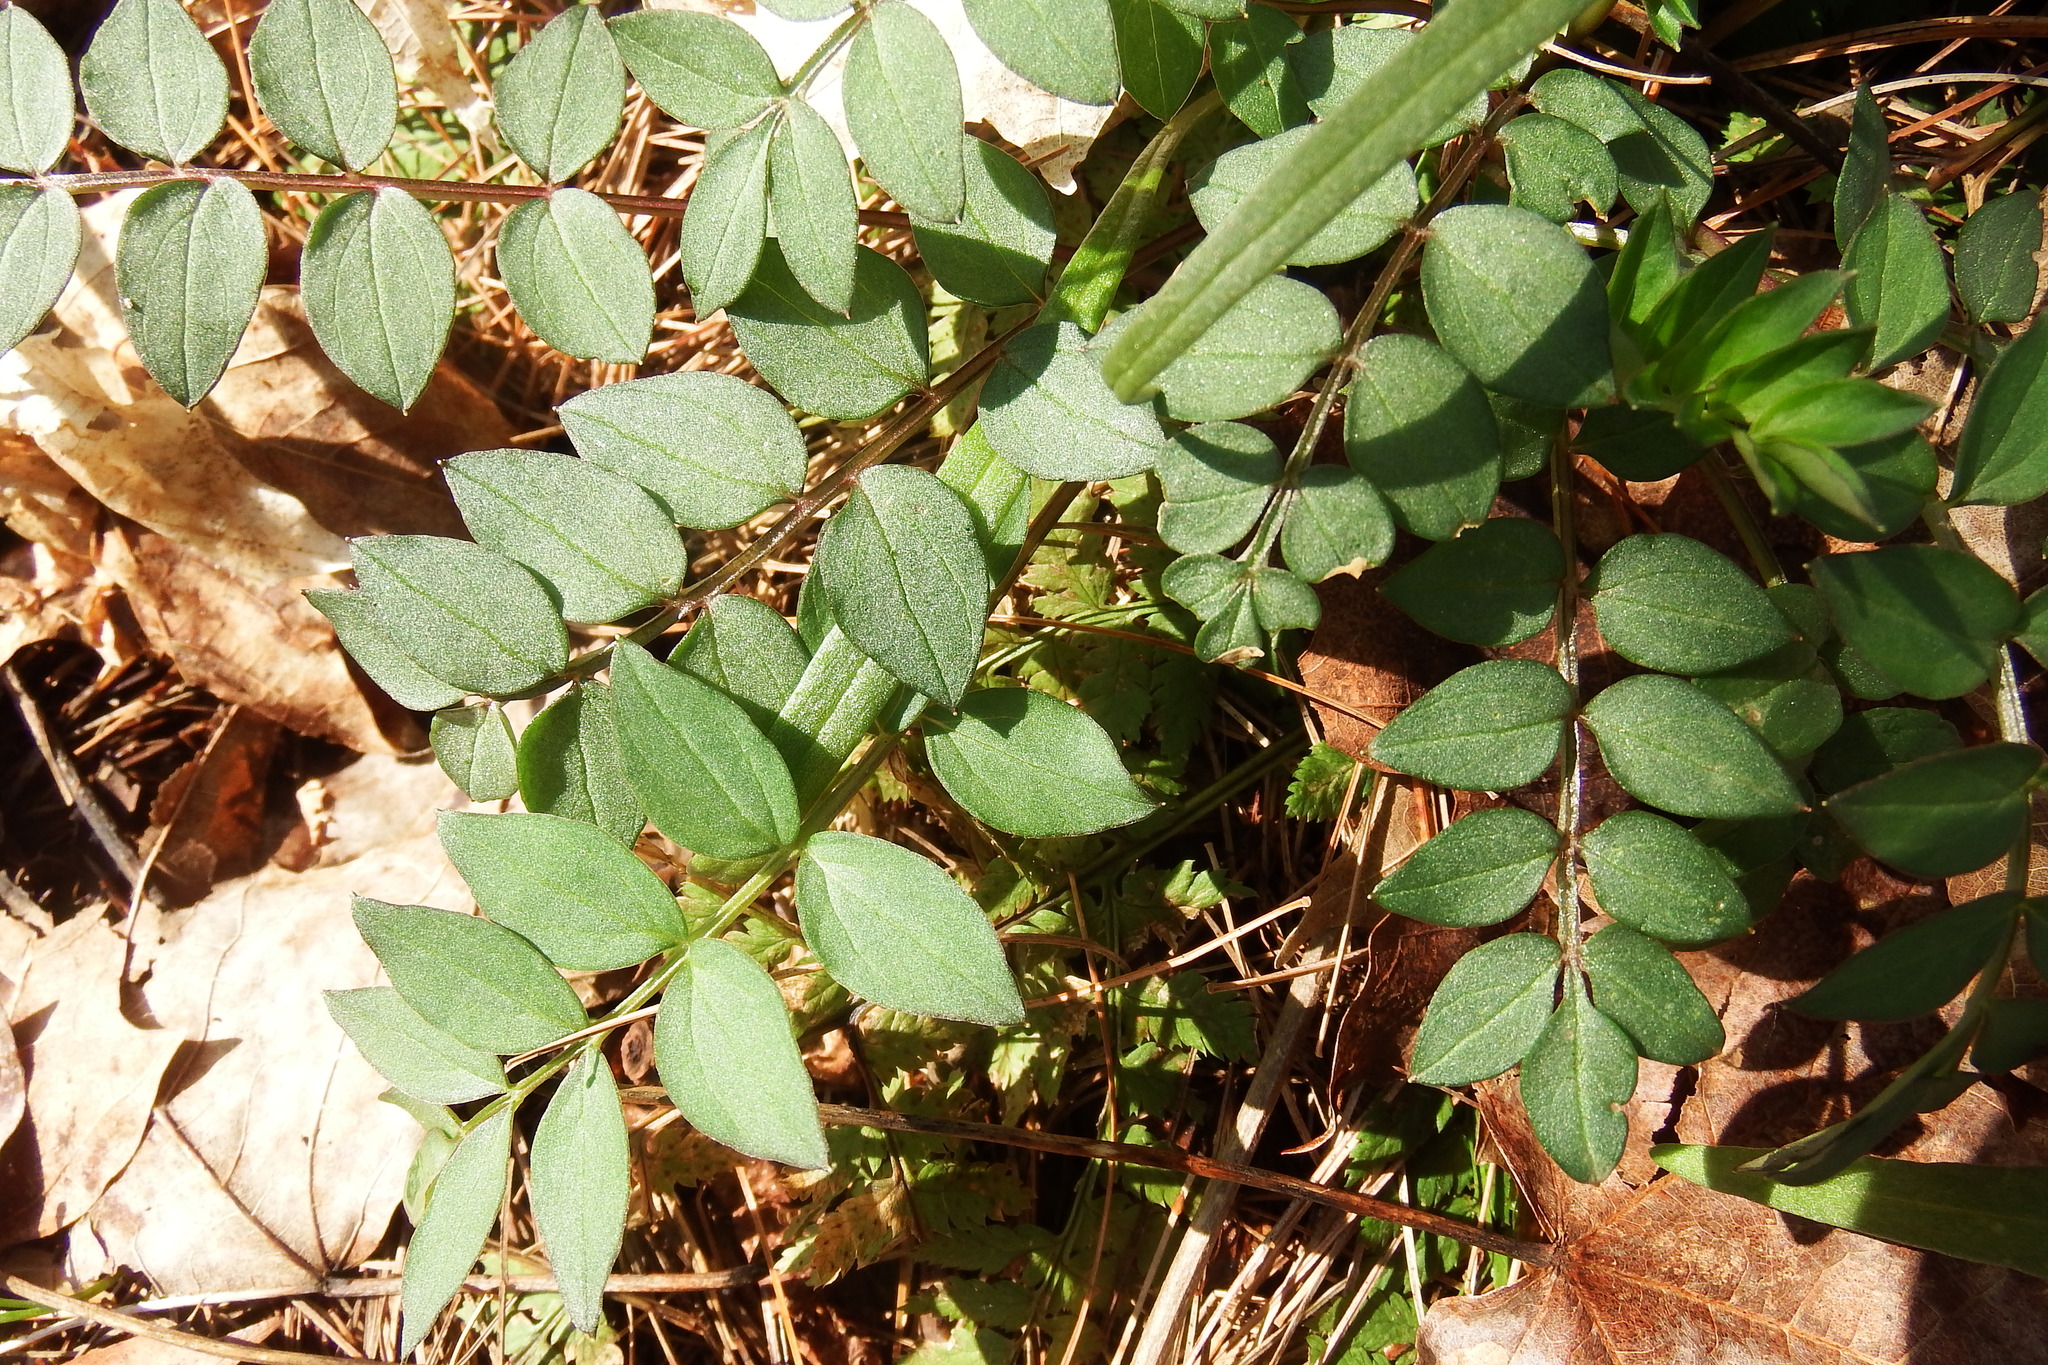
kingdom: Plantae
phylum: Tracheophyta
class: Magnoliopsida
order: Ericales
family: Polemoniaceae
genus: Polemonium
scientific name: Polemonium reptans
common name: Creeping jacob's-ladder
